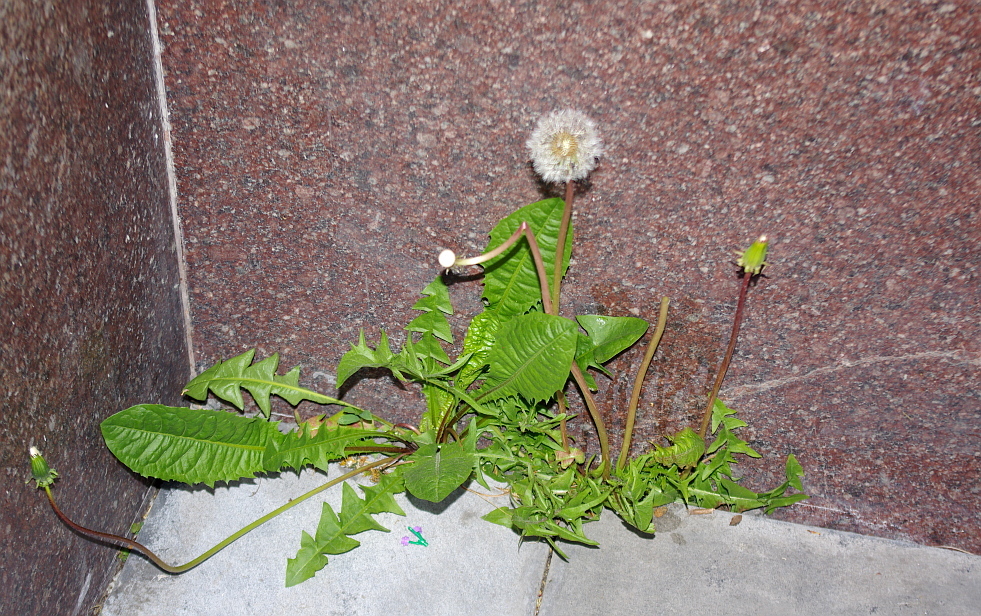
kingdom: Plantae
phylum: Tracheophyta
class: Magnoliopsida
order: Asterales
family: Asteraceae
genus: Taraxacum
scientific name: Taraxacum officinale
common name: Common dandelion
